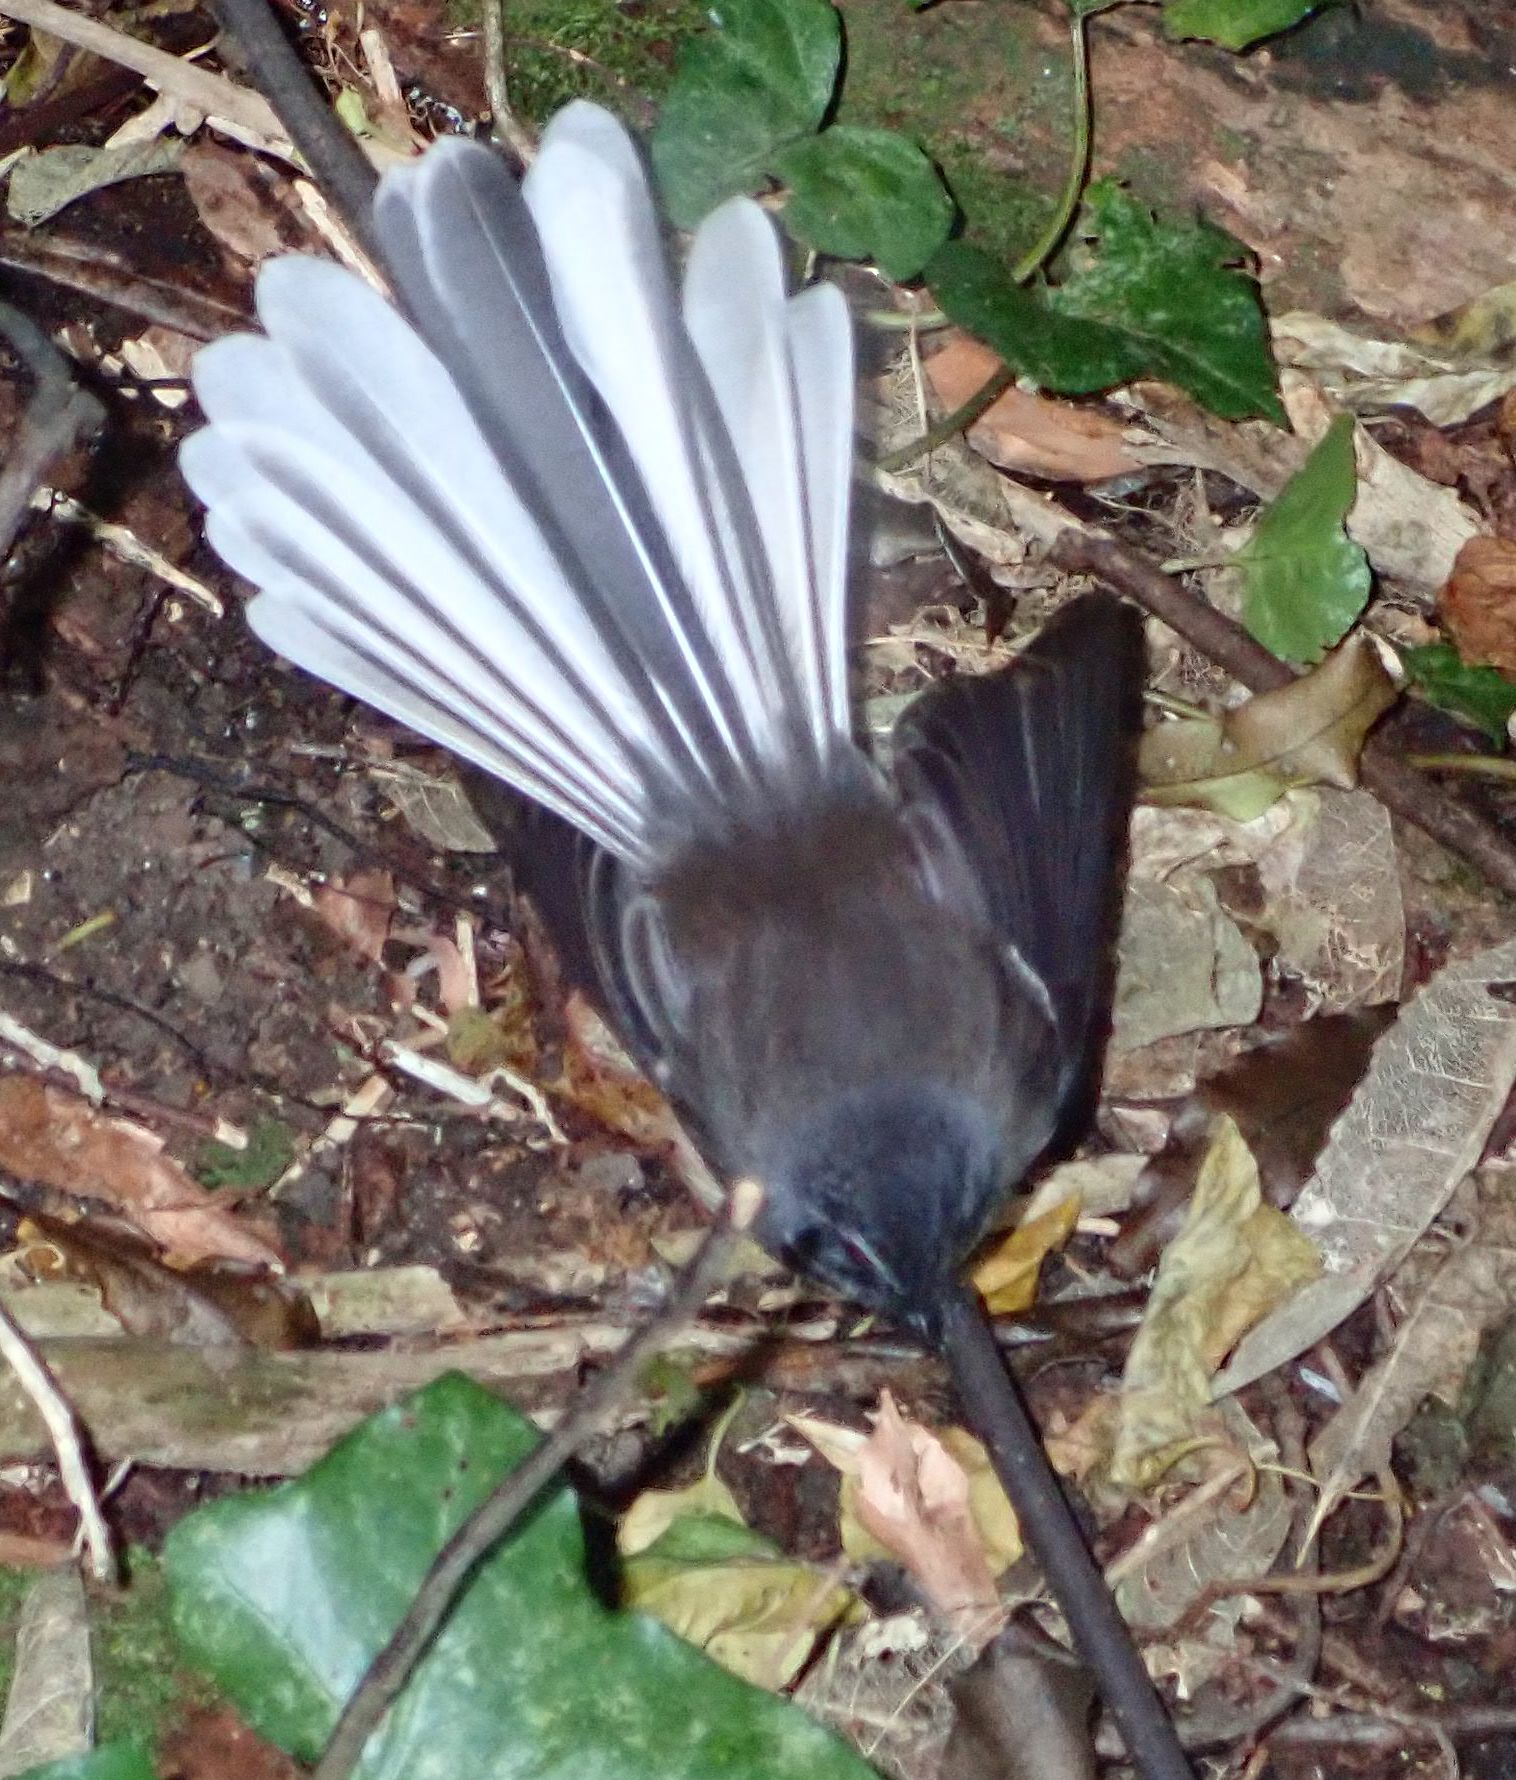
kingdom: Animalia
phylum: Chordata
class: Aves
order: Passeriformes
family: Rhipiduridae
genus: Rhipidura
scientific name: Rhipidura fuliginosa
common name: New zealand fantail
